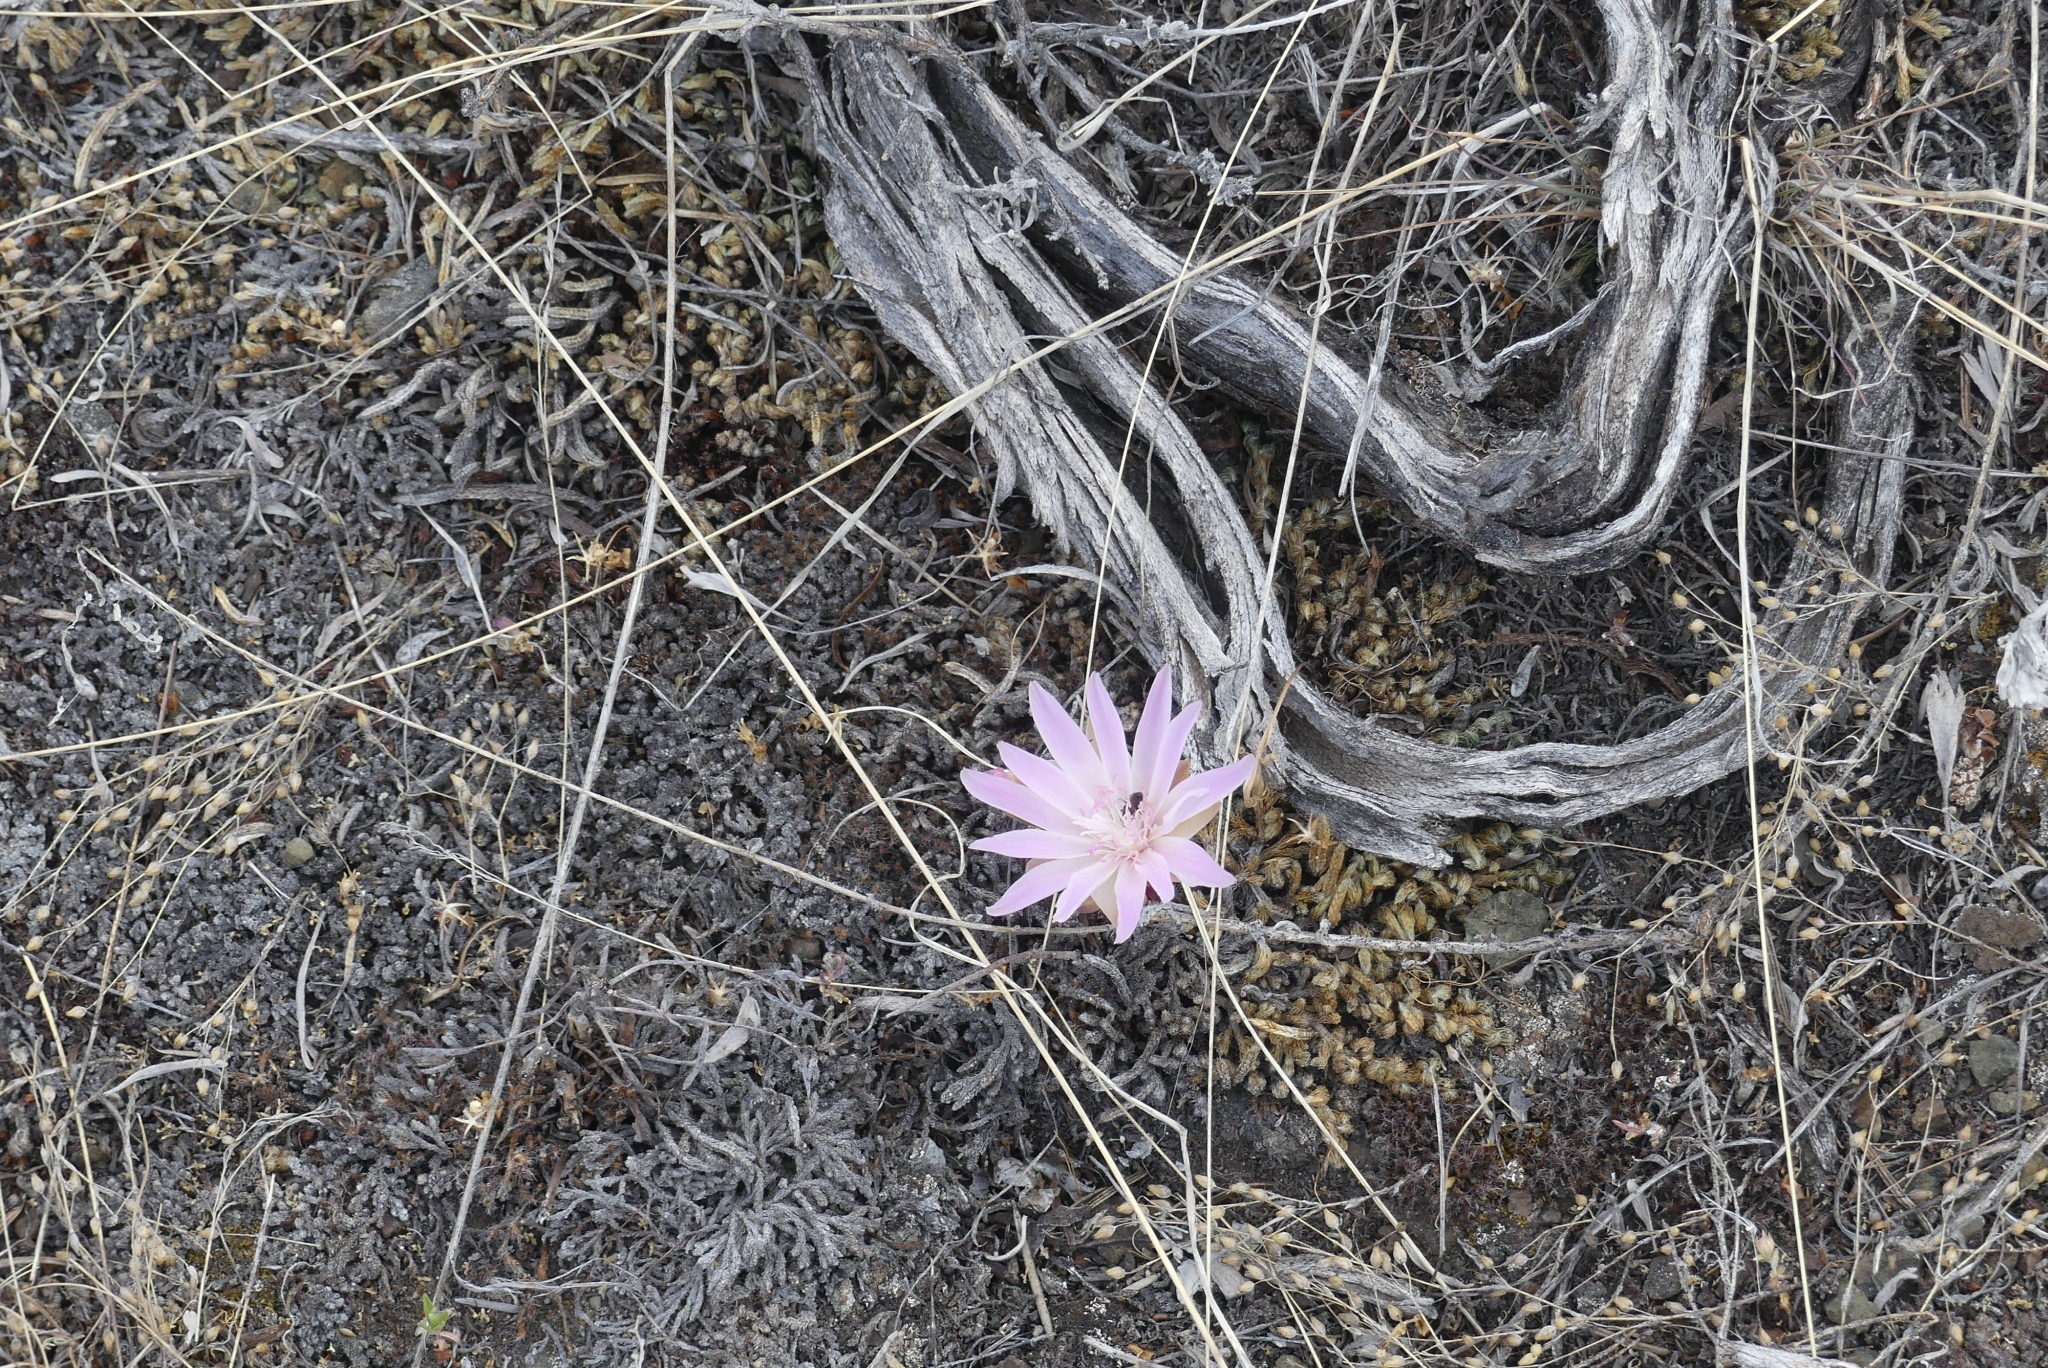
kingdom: Plantae
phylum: Tracheophyta
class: Magnoliopsida
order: Caryophyllales
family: Montiaceae
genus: Lewisia
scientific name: Lewisia rediviva
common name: Bitter-root
